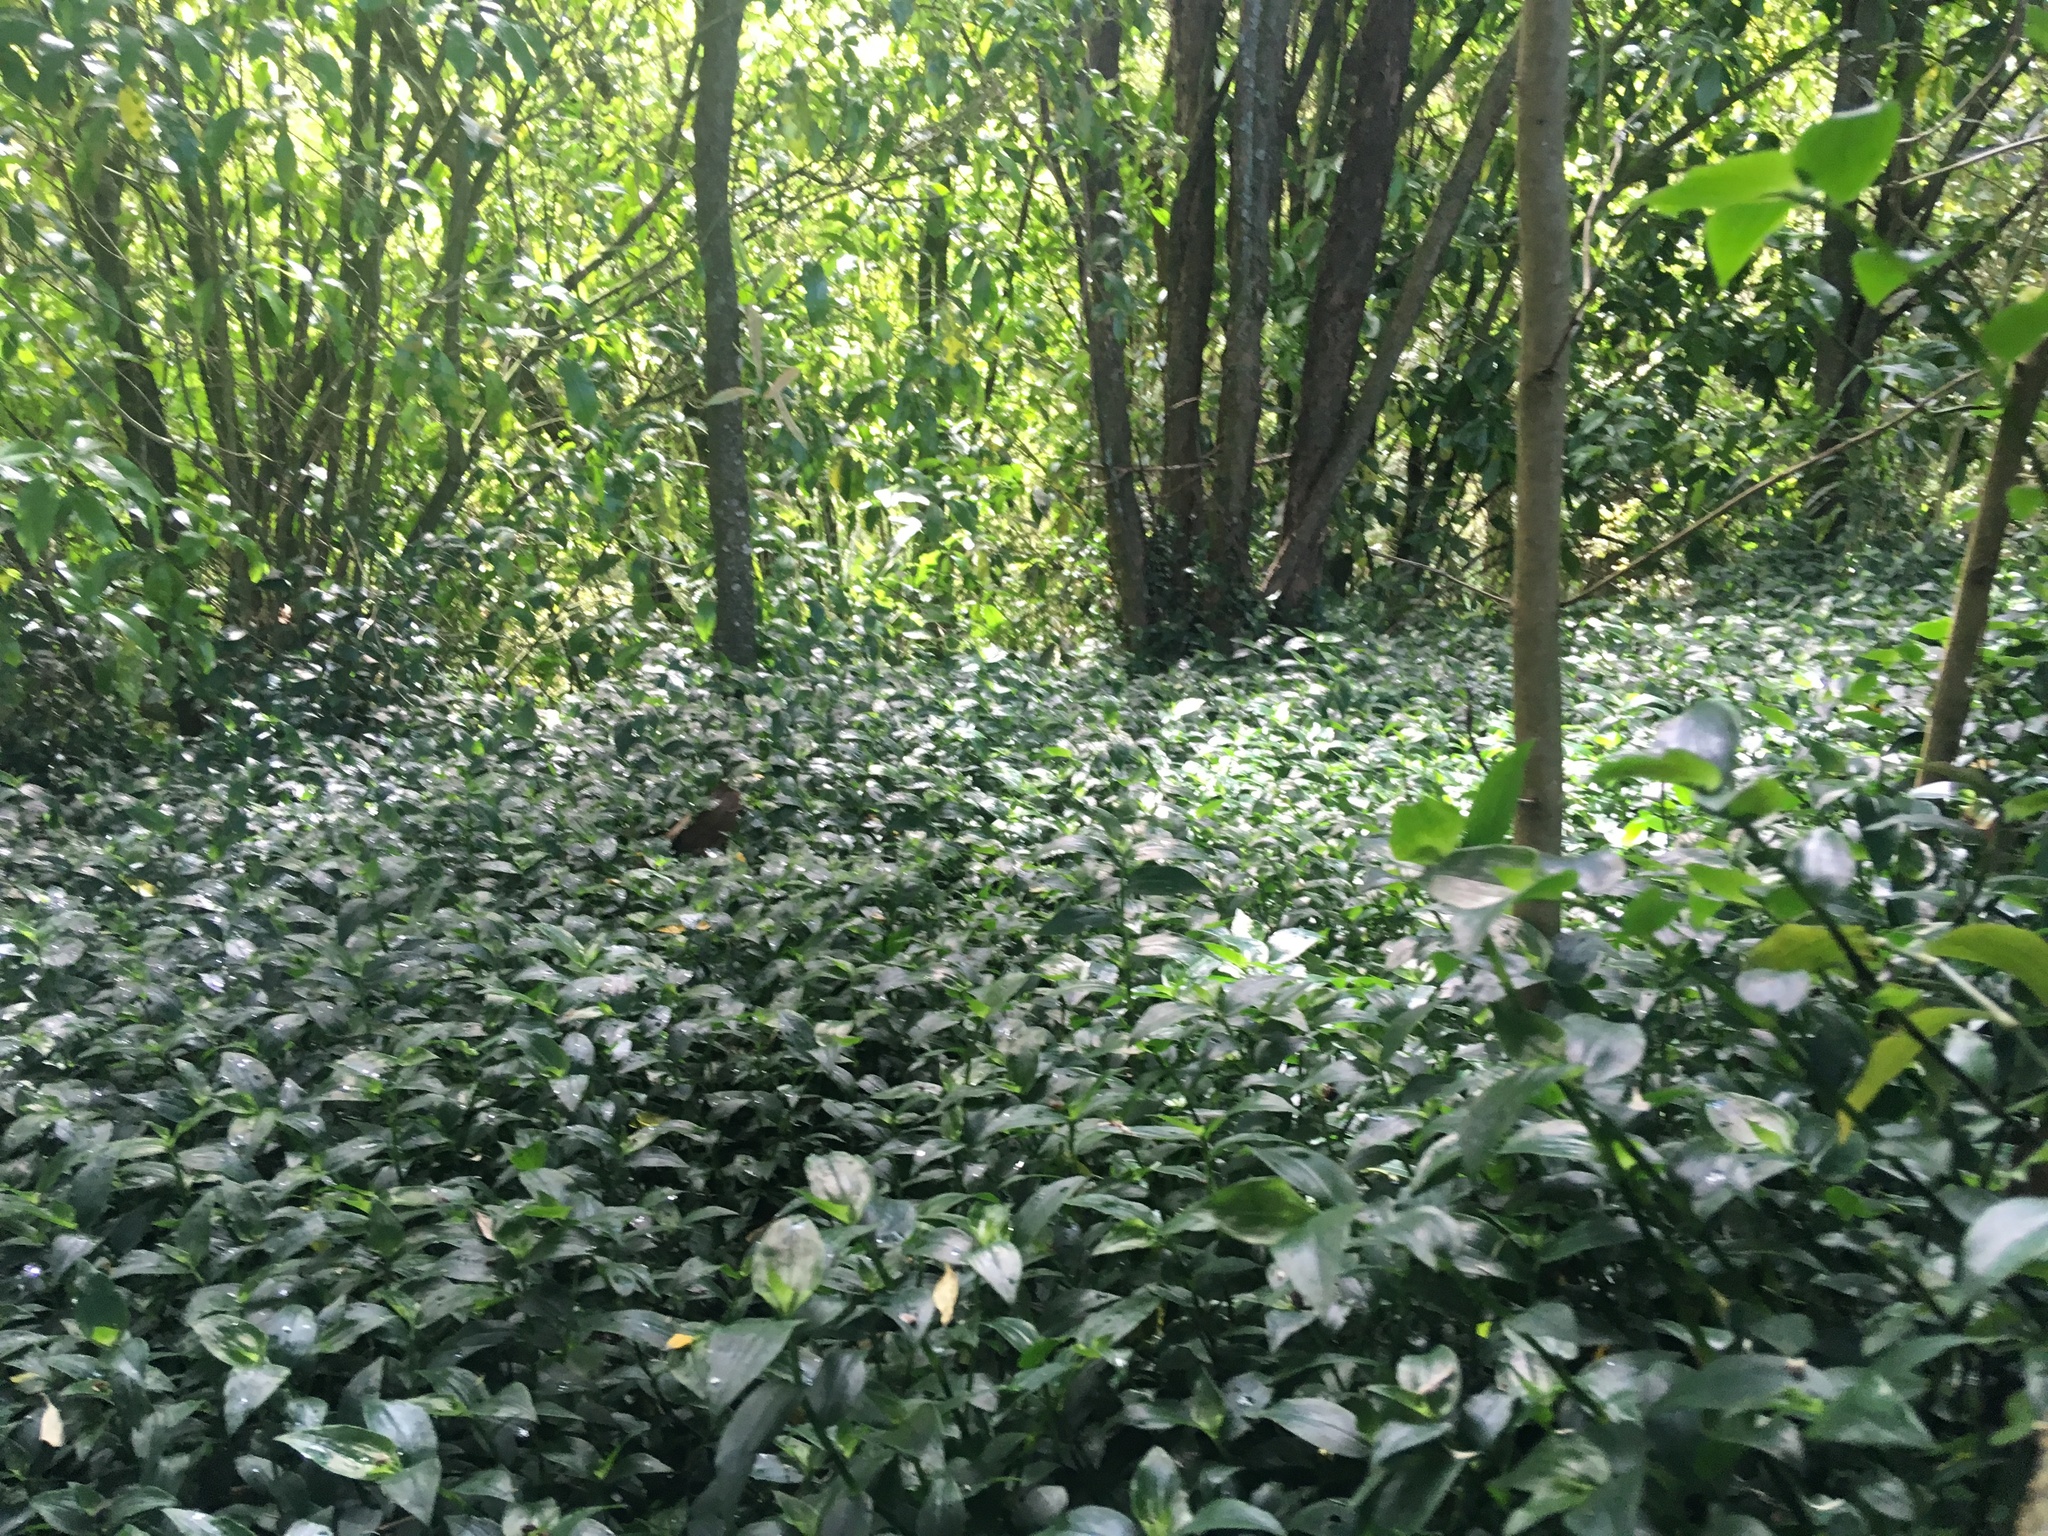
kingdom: Plantae
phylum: Tracheophyta
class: Liliopsida
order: Commelinales
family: Commelinaceae
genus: Tradescantia
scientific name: Tradescantia fluminensis
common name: Wandering-jew
